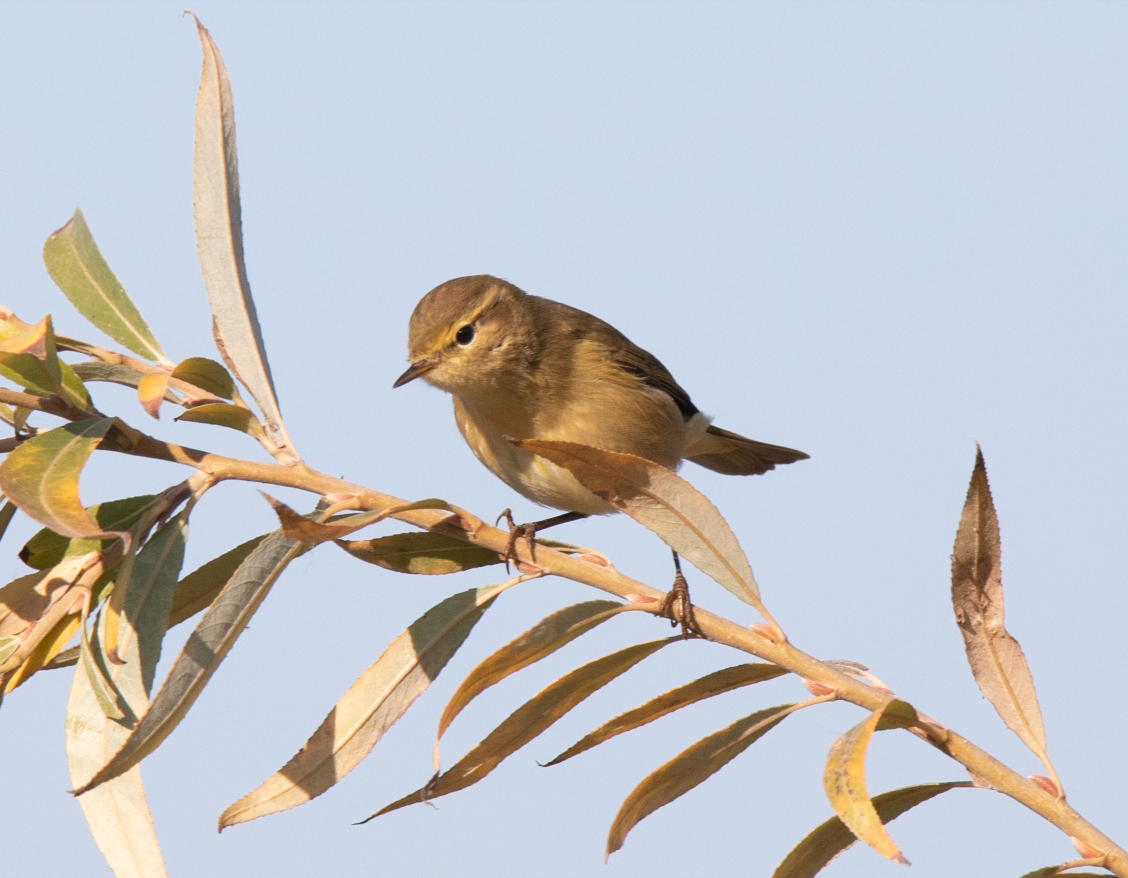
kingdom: Animalia
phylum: Chordata
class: Aves
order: Passeriformes
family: Phylloscopidae
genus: Phylloscopus
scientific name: Phylloscopus collybita
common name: Common chiffchaff
